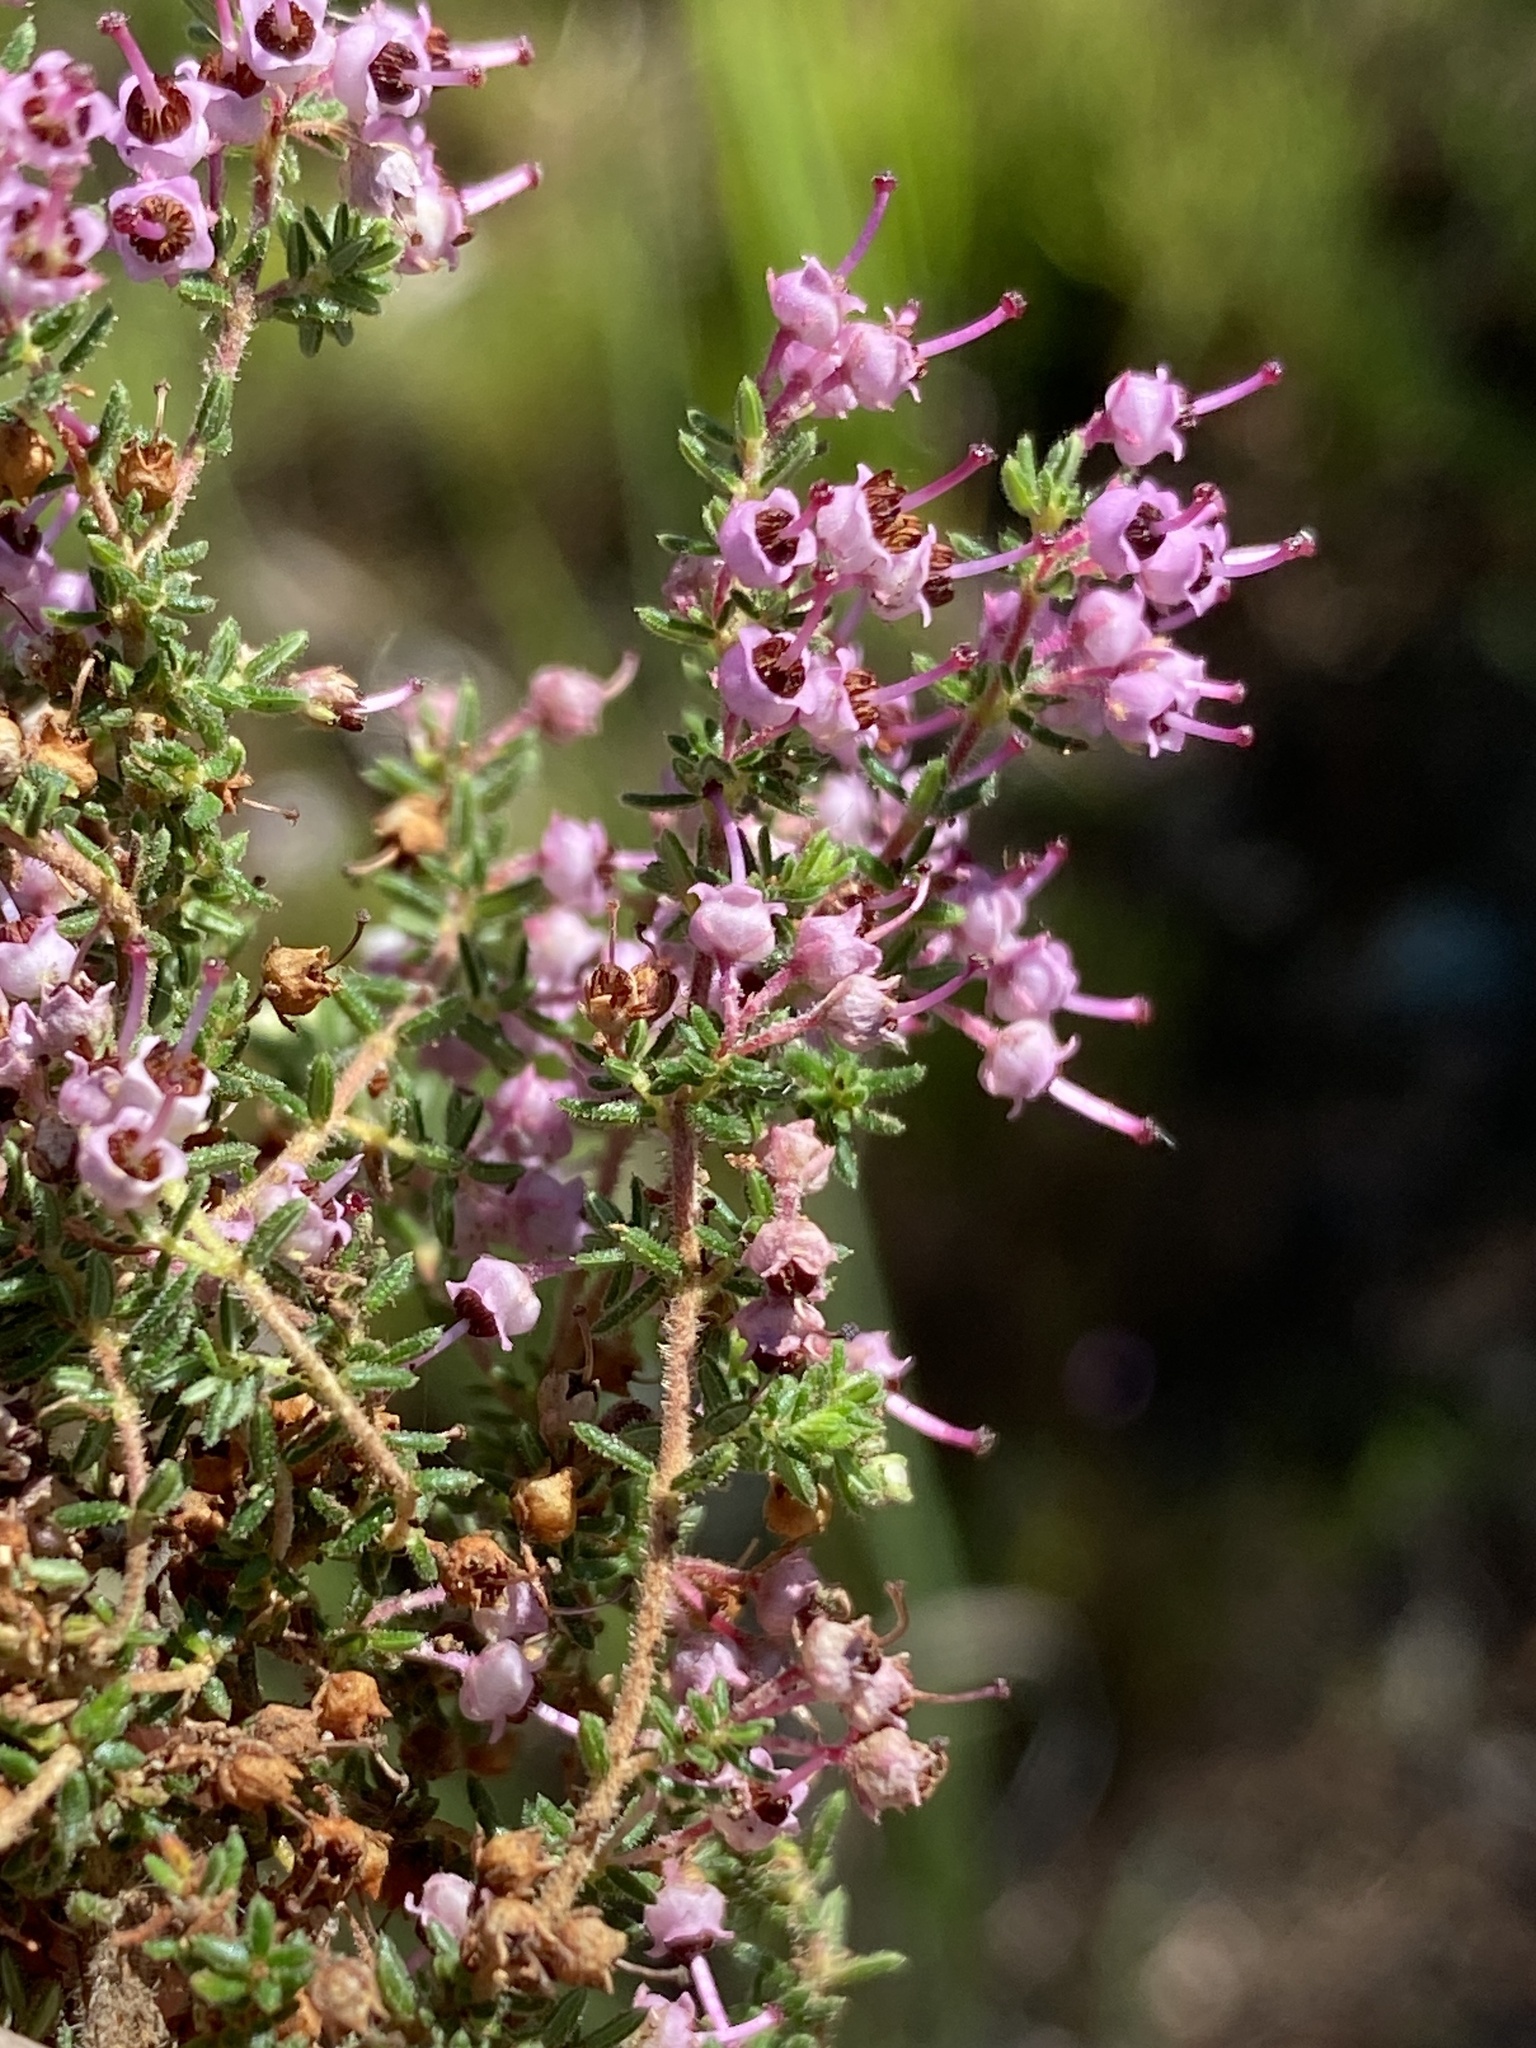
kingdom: Plantae
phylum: Tracheophyta
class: Magnoliopsida
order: Ericales
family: Ericaceae
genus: Erica
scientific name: Erica grata
